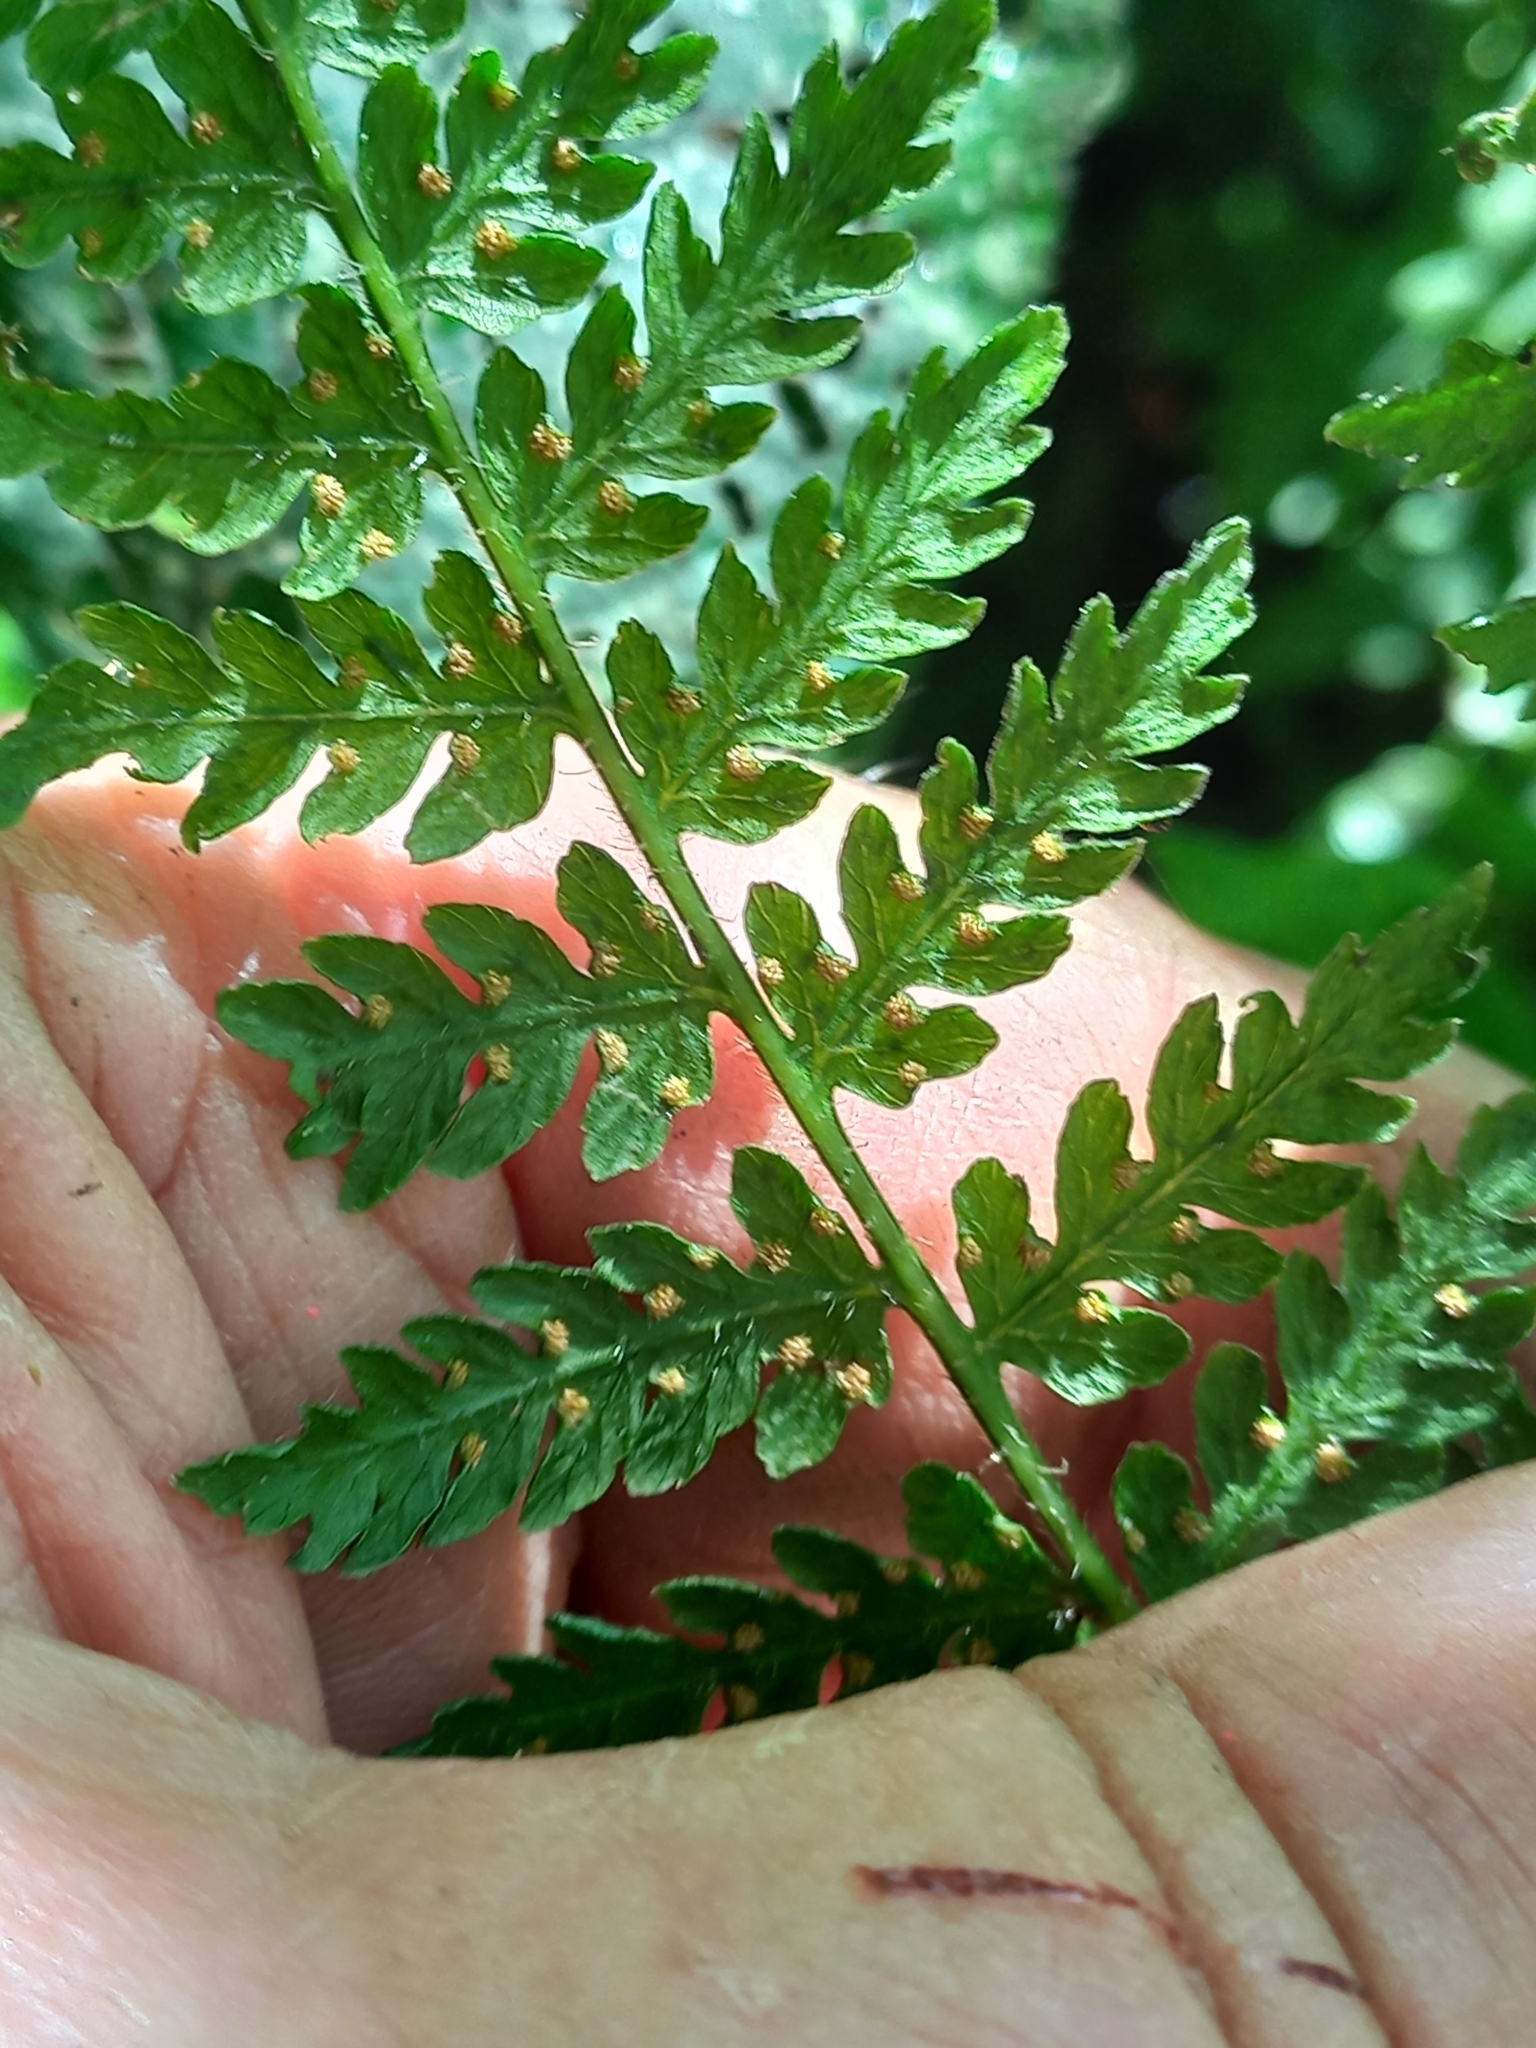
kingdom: Plantae
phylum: Tracheophyta
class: Polypodiopsida
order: Polypodiales
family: Dennstaedtiaceae
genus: Hypolepis
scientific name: Hypolepis ambigua
